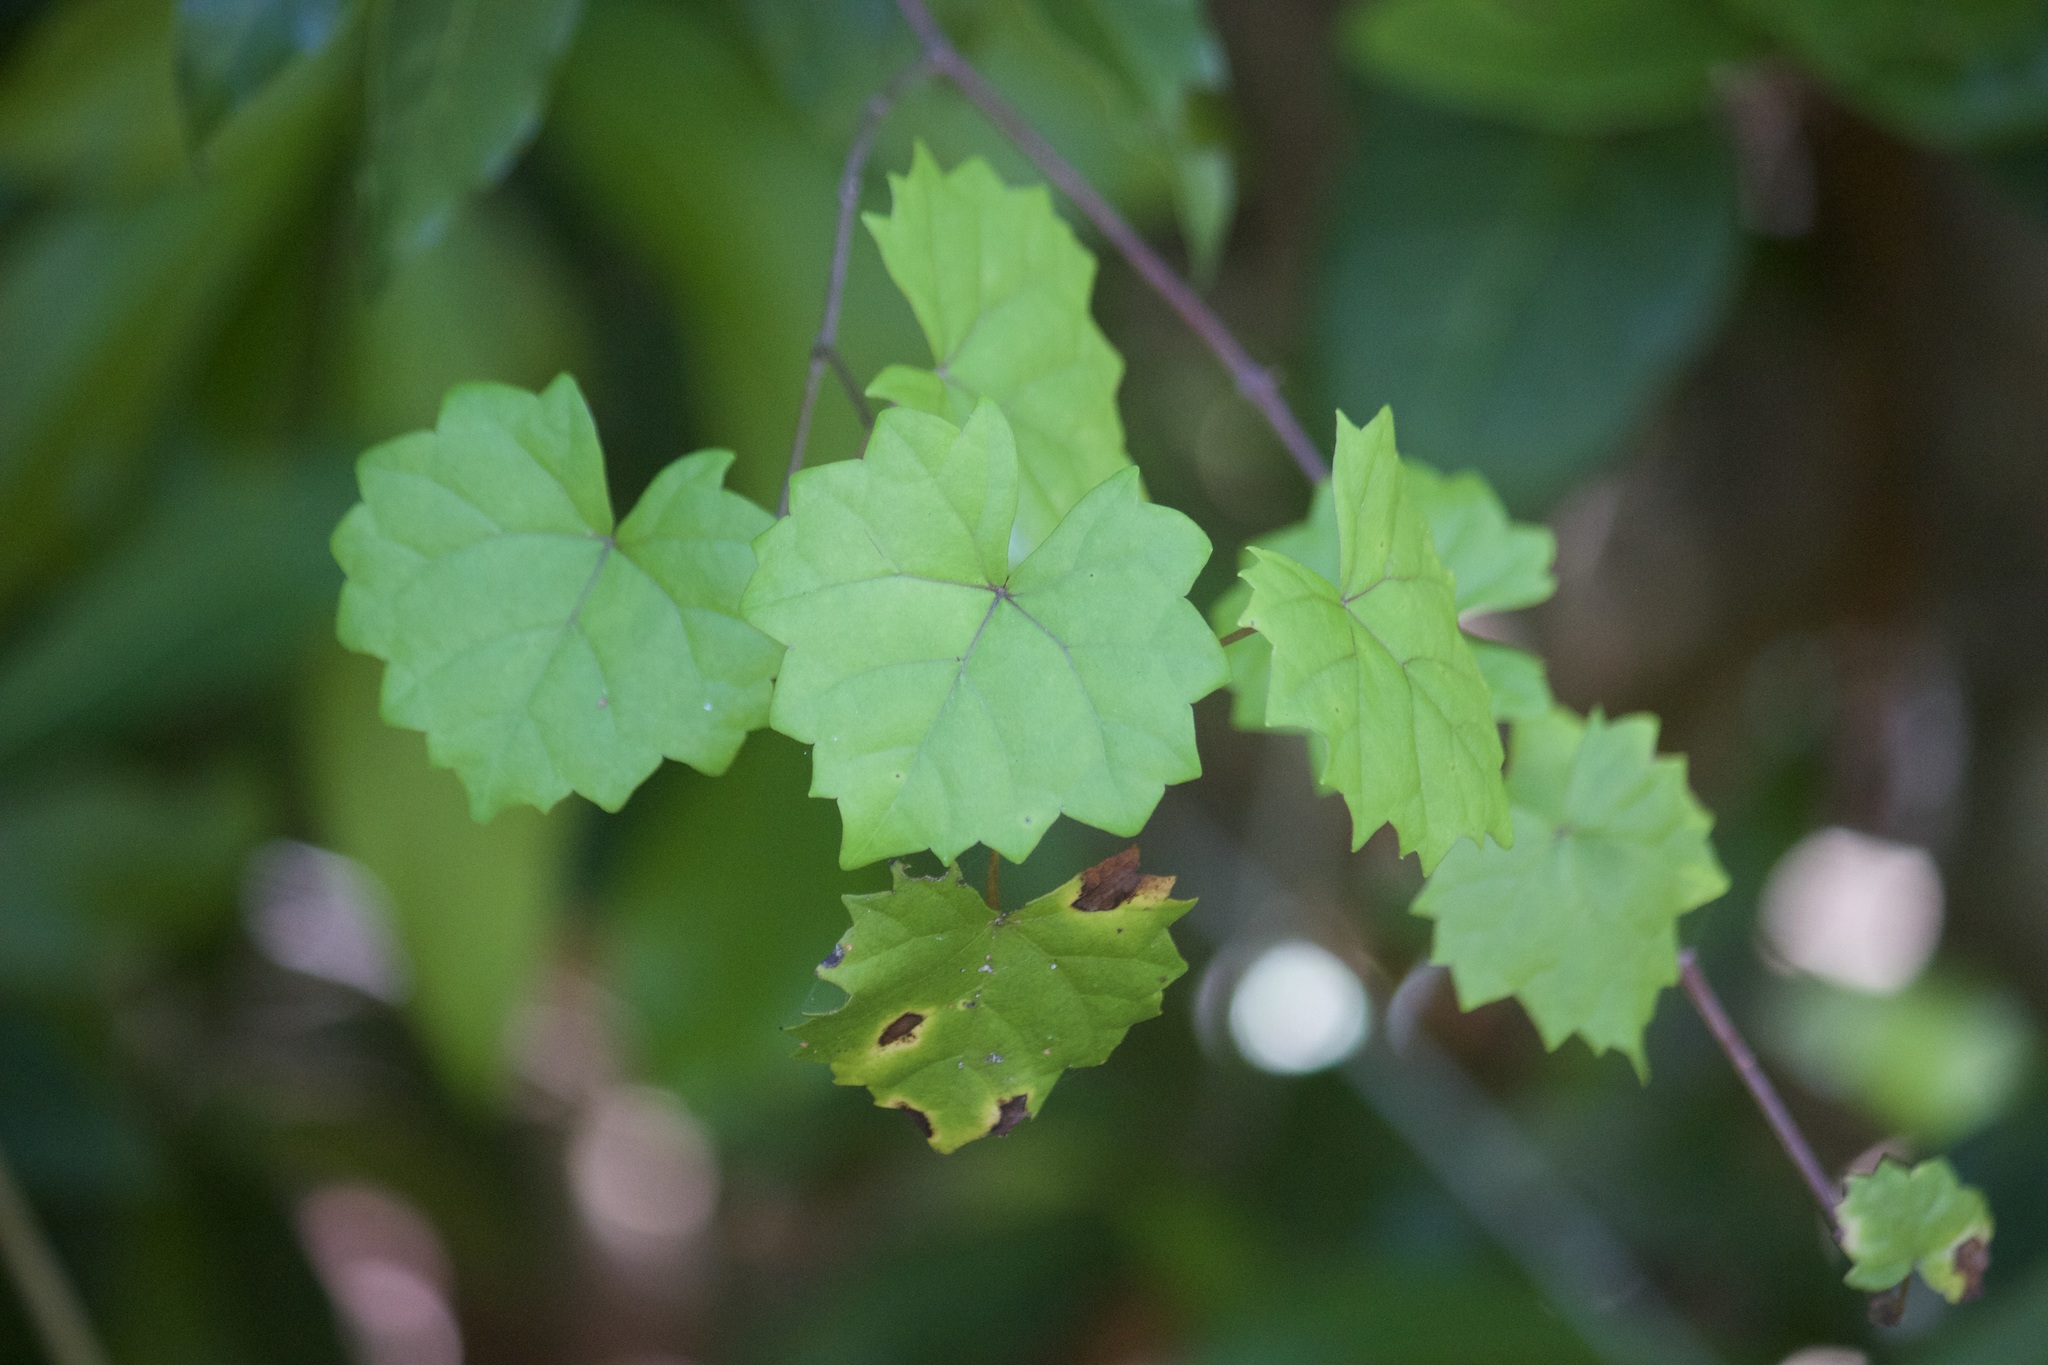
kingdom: Plantae
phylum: Tracheophyta
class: Magnoliopsida
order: Vitales
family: Vitaceae
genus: Vitis
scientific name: Vitis rotundifolia
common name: Muscadine grape
